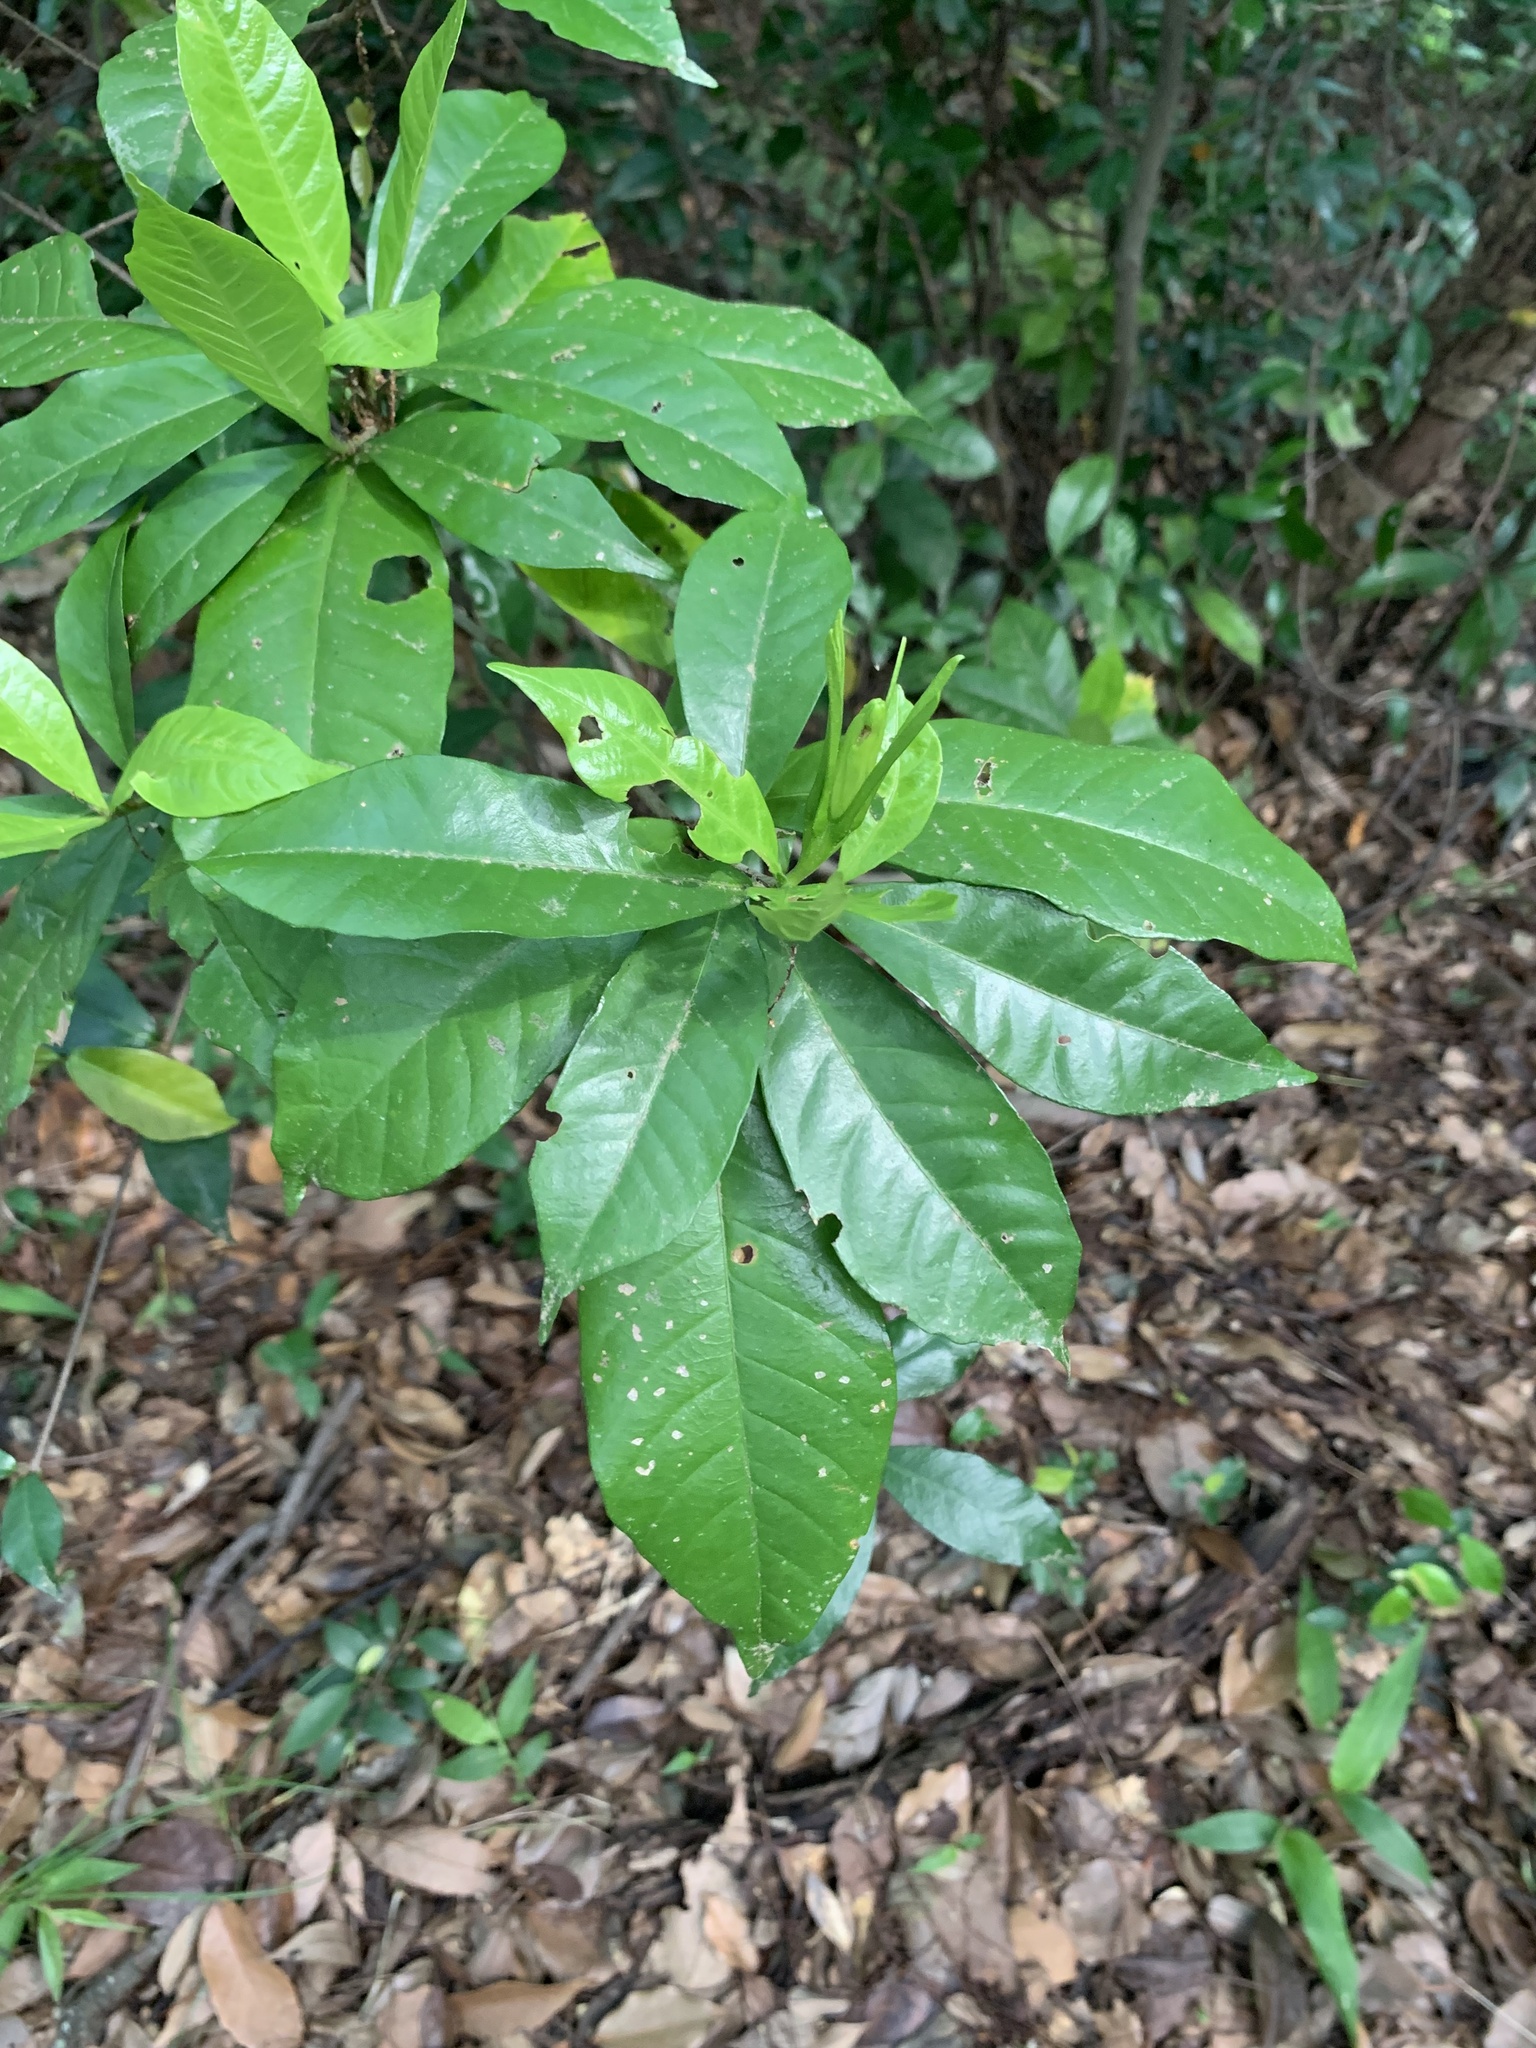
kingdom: Plantae
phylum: Tracheophyta
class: Magnoliopsida
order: Gentianales
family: Rubiaceae
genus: Gardenia
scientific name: Gardenia jasminoides
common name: Cape-jasmine
